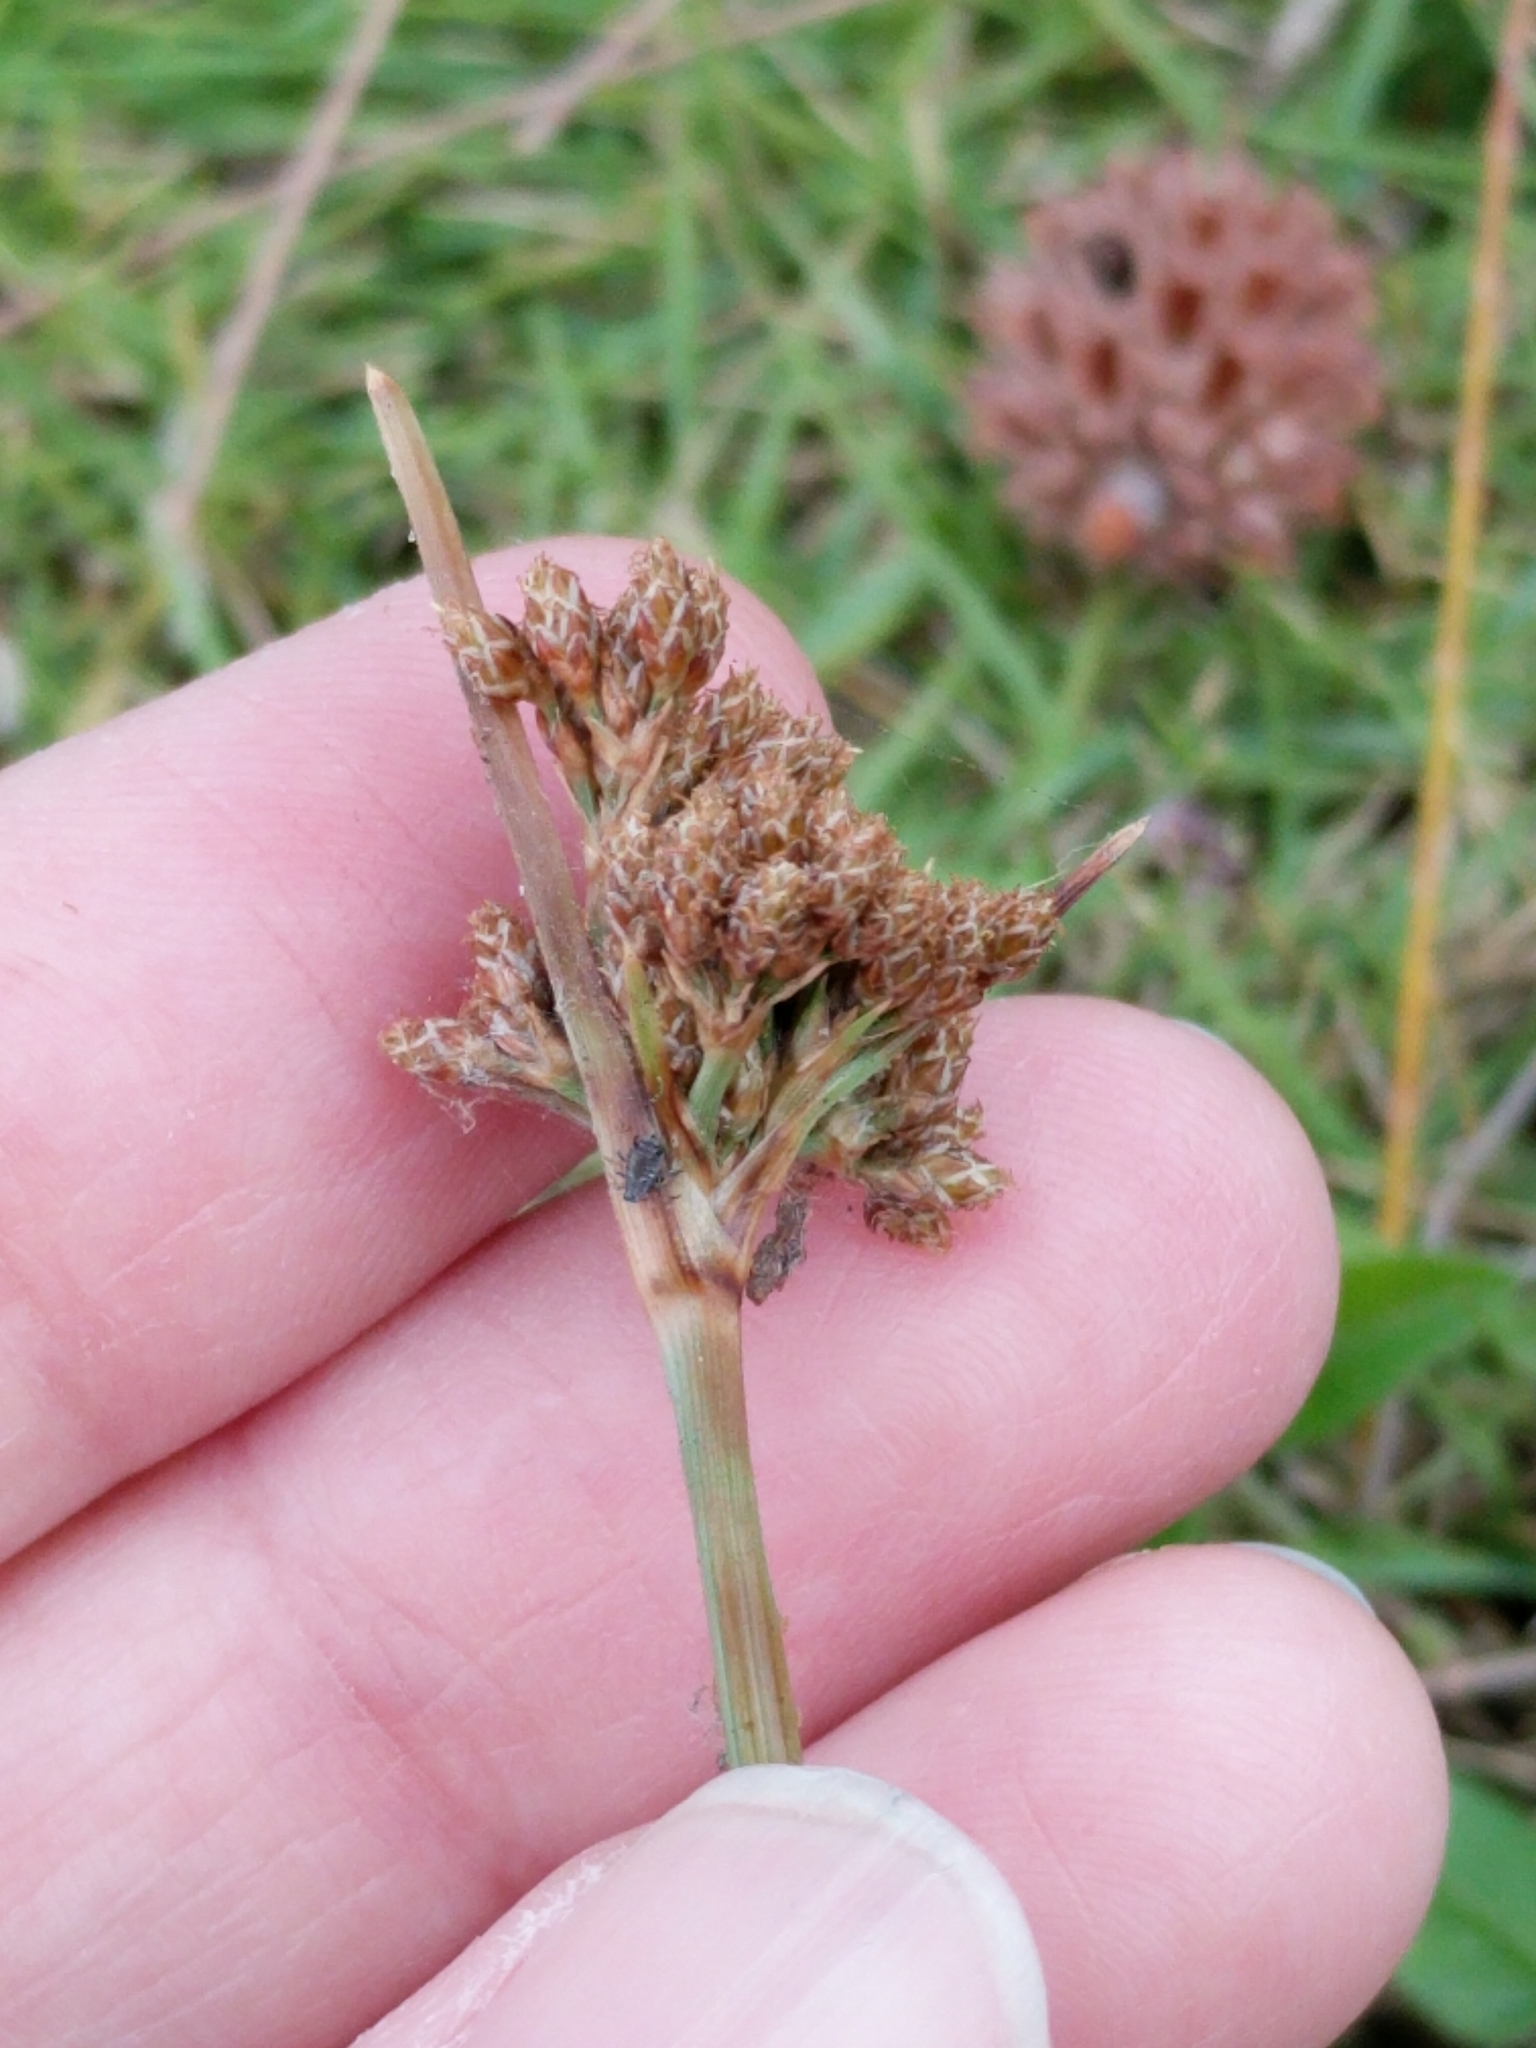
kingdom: Plantae
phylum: Tracheophyta
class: Liliopsida
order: Poales
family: Cyperaceae
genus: Fimbristylis
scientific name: Fimbristylis cymosa
